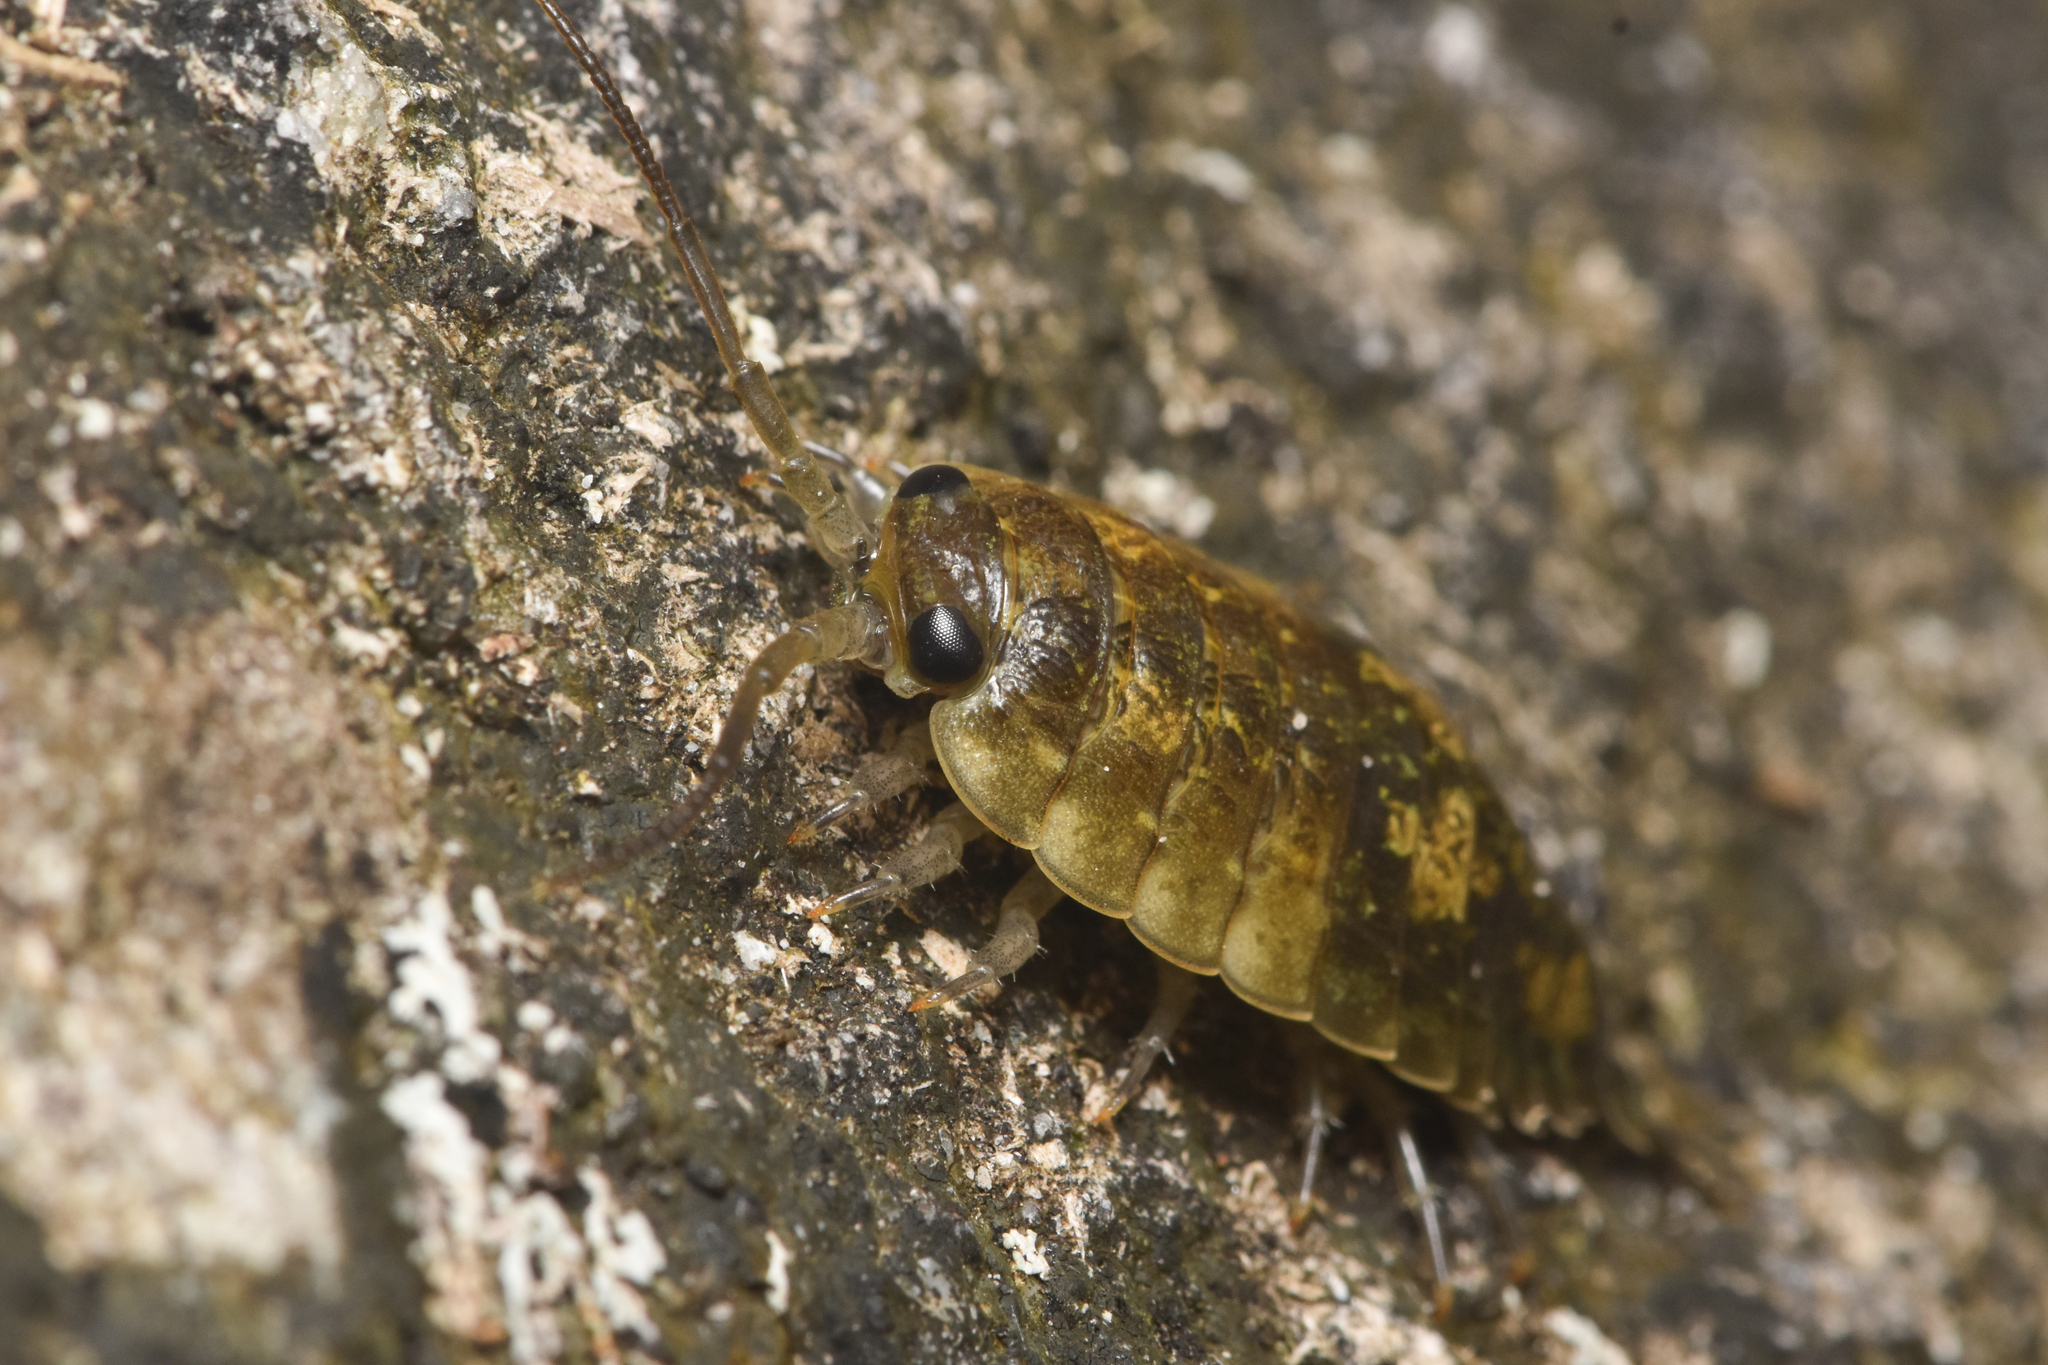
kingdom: Animalia
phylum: Arthropoda
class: Malacostraca
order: Isopoda
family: Ligiidae
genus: Ligia
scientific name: Ligia pallasii
